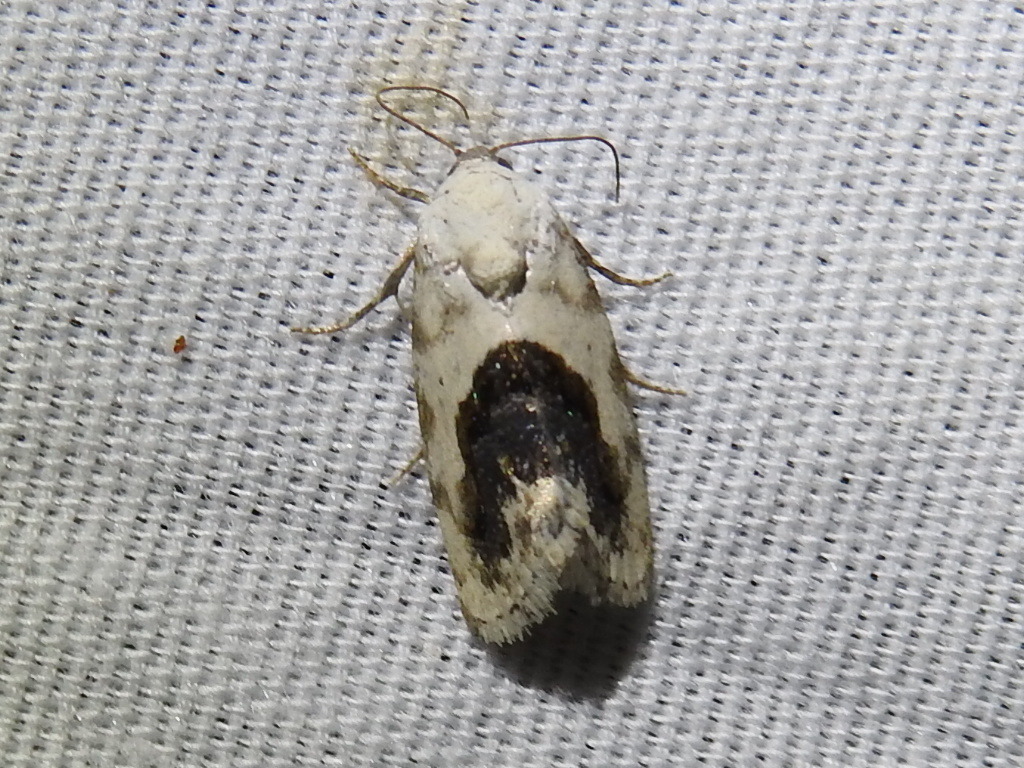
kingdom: Animalia
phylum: Arthropoda
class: Insecta
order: Lepidoptera
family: Noctuidae
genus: Acontia
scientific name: Acontia erastrioides
